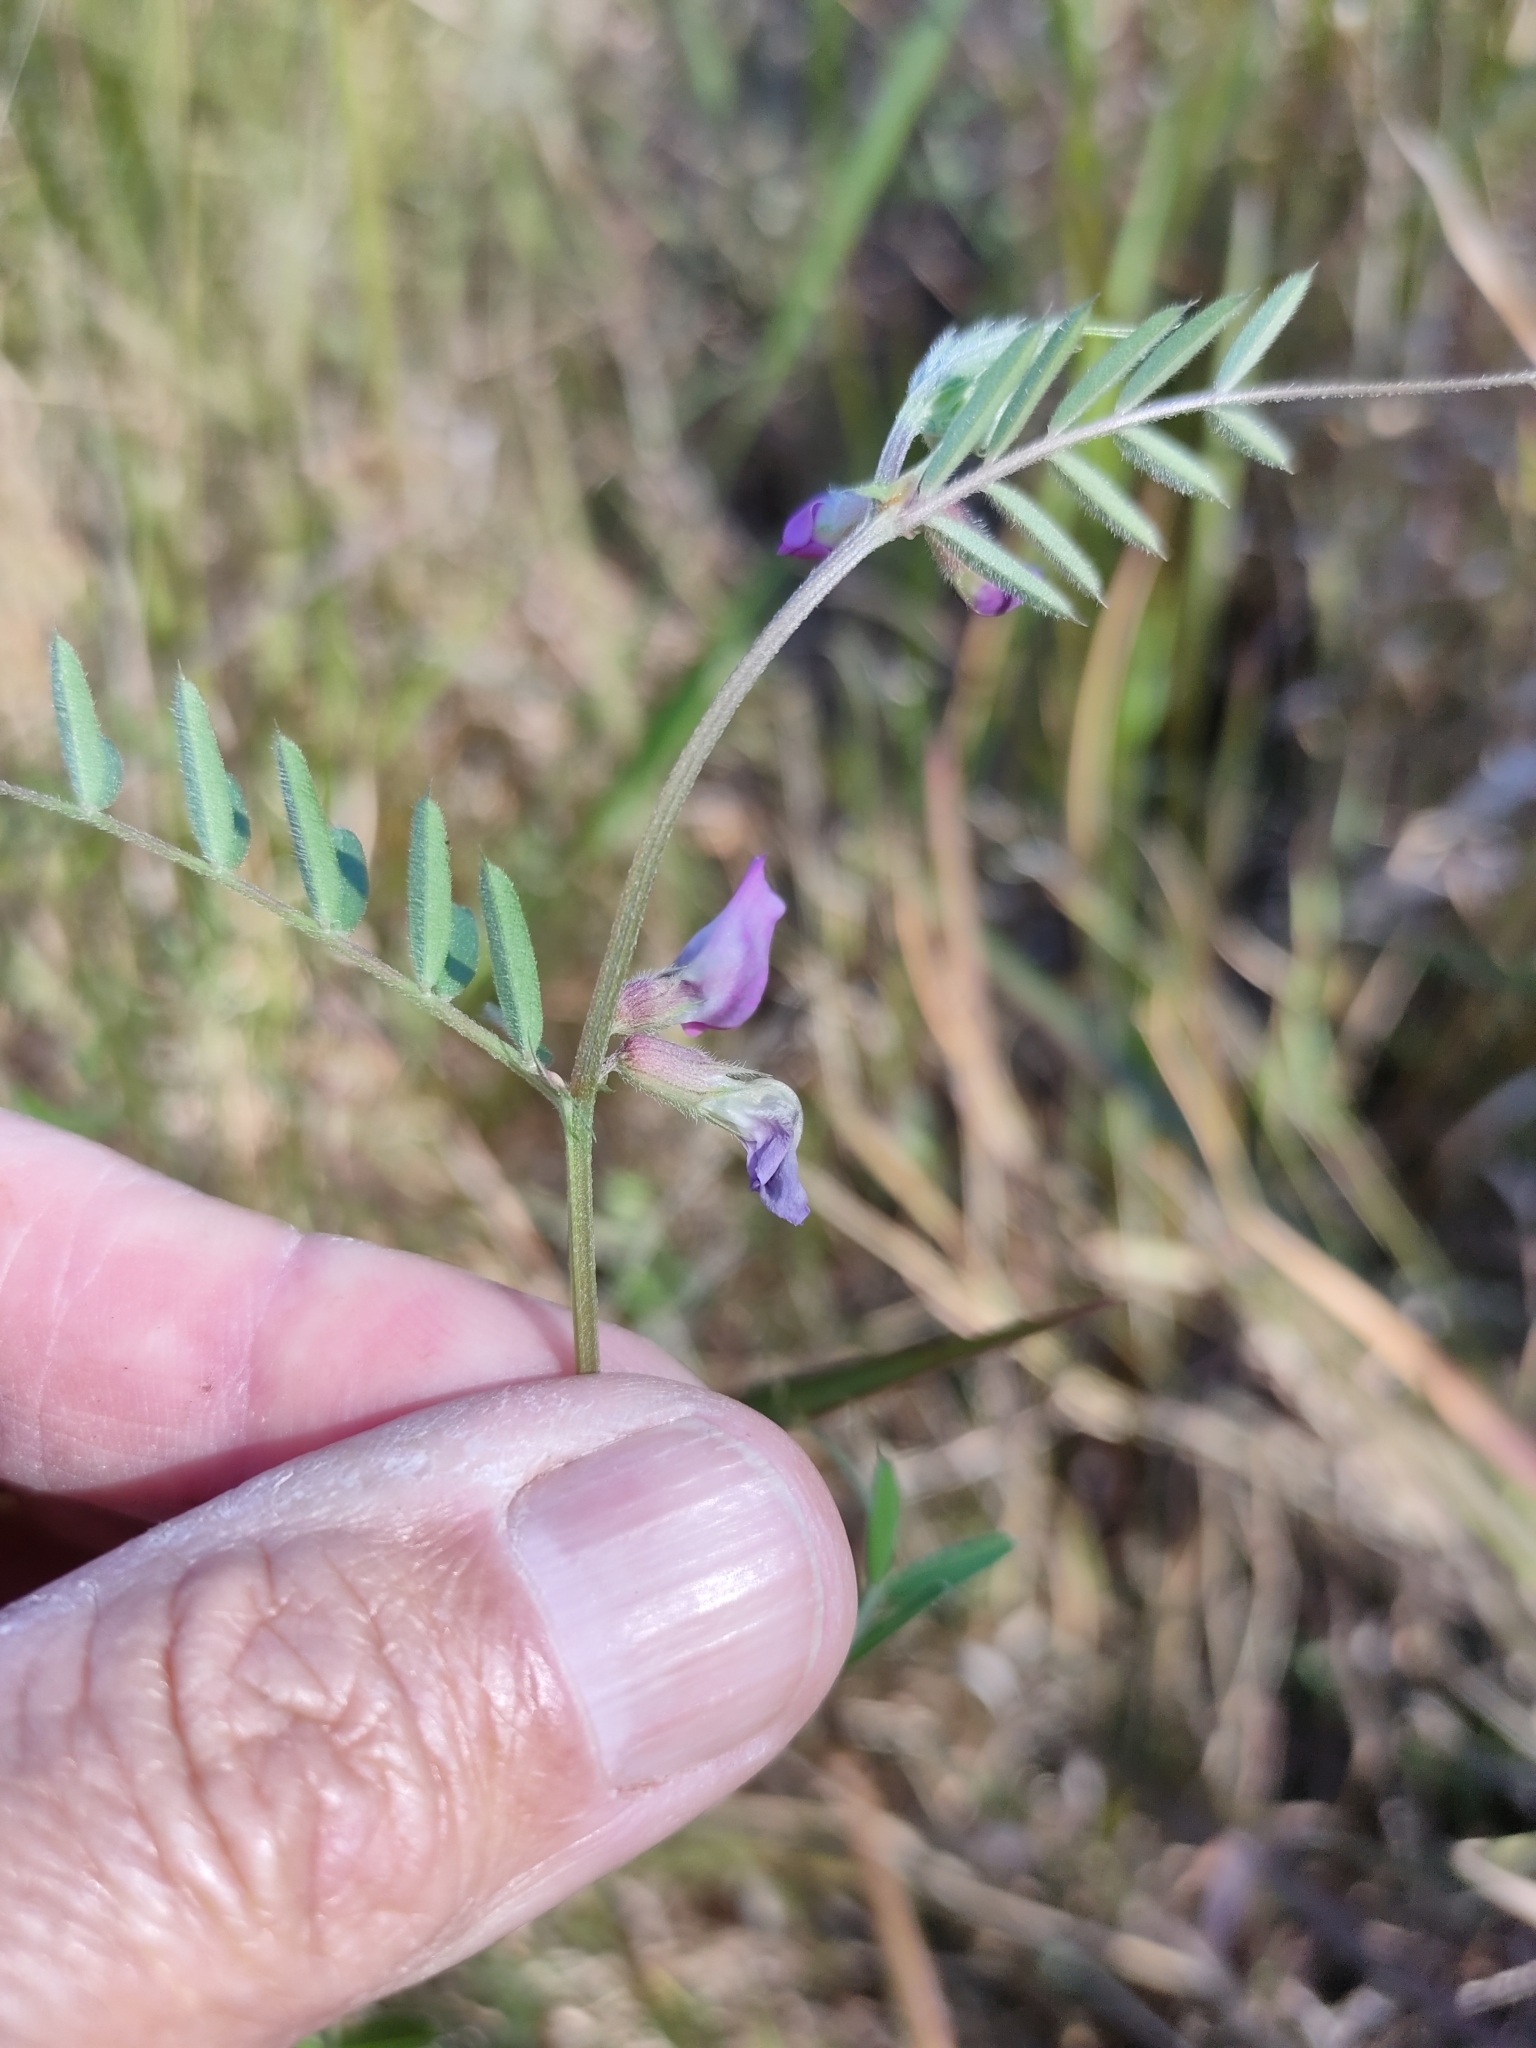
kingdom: Plantae
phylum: Tracheophyta
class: Magnoliopsida
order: Fabales
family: Fabaceae
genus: Vicia
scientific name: Vicia sativa
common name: Garden vetch
